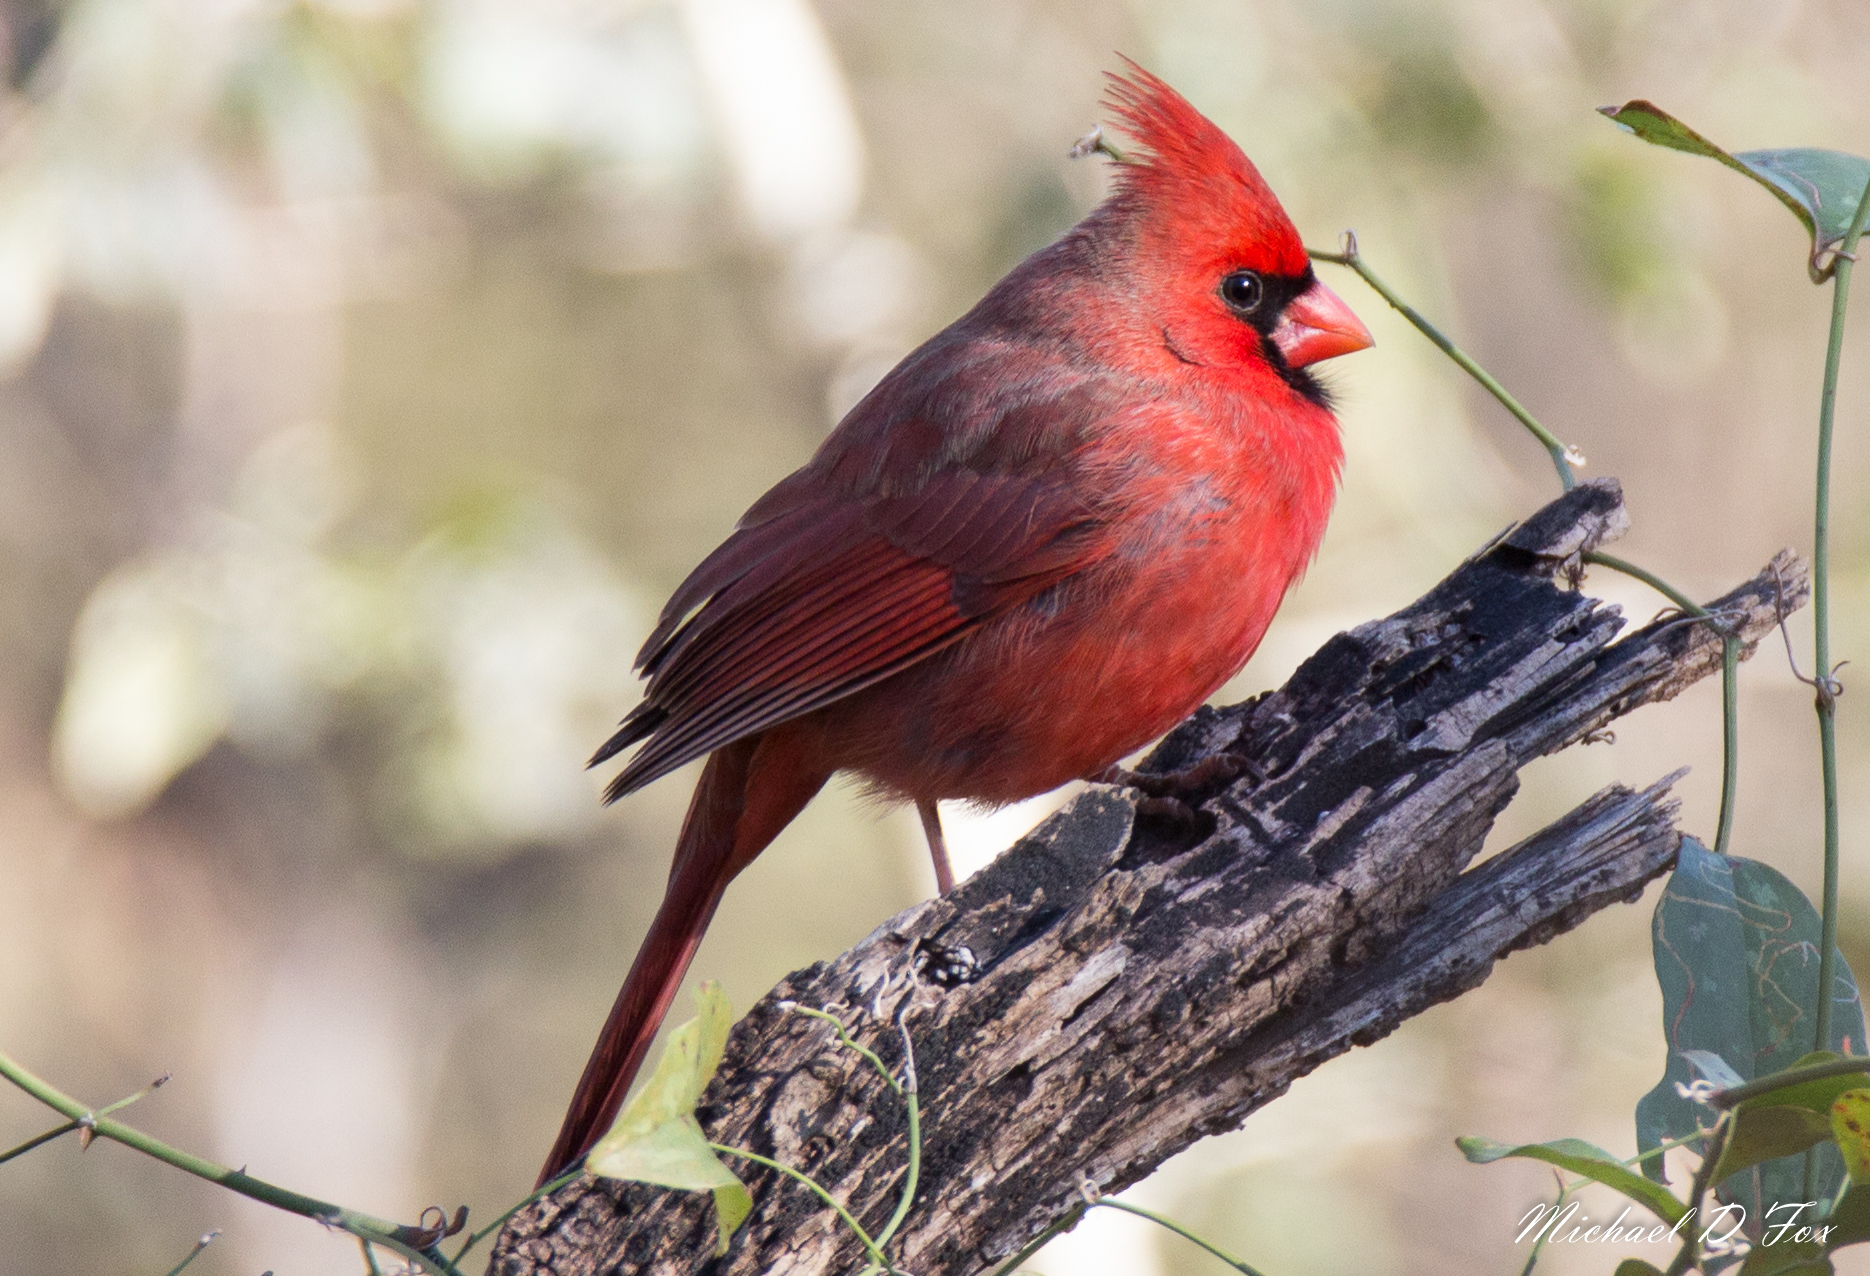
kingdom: Animalia
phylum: Chordata
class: Aves
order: Passeriformes
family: Cardinalidae
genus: Cardinalis
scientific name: Cardinalis cardinalis
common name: Northern cardinal
